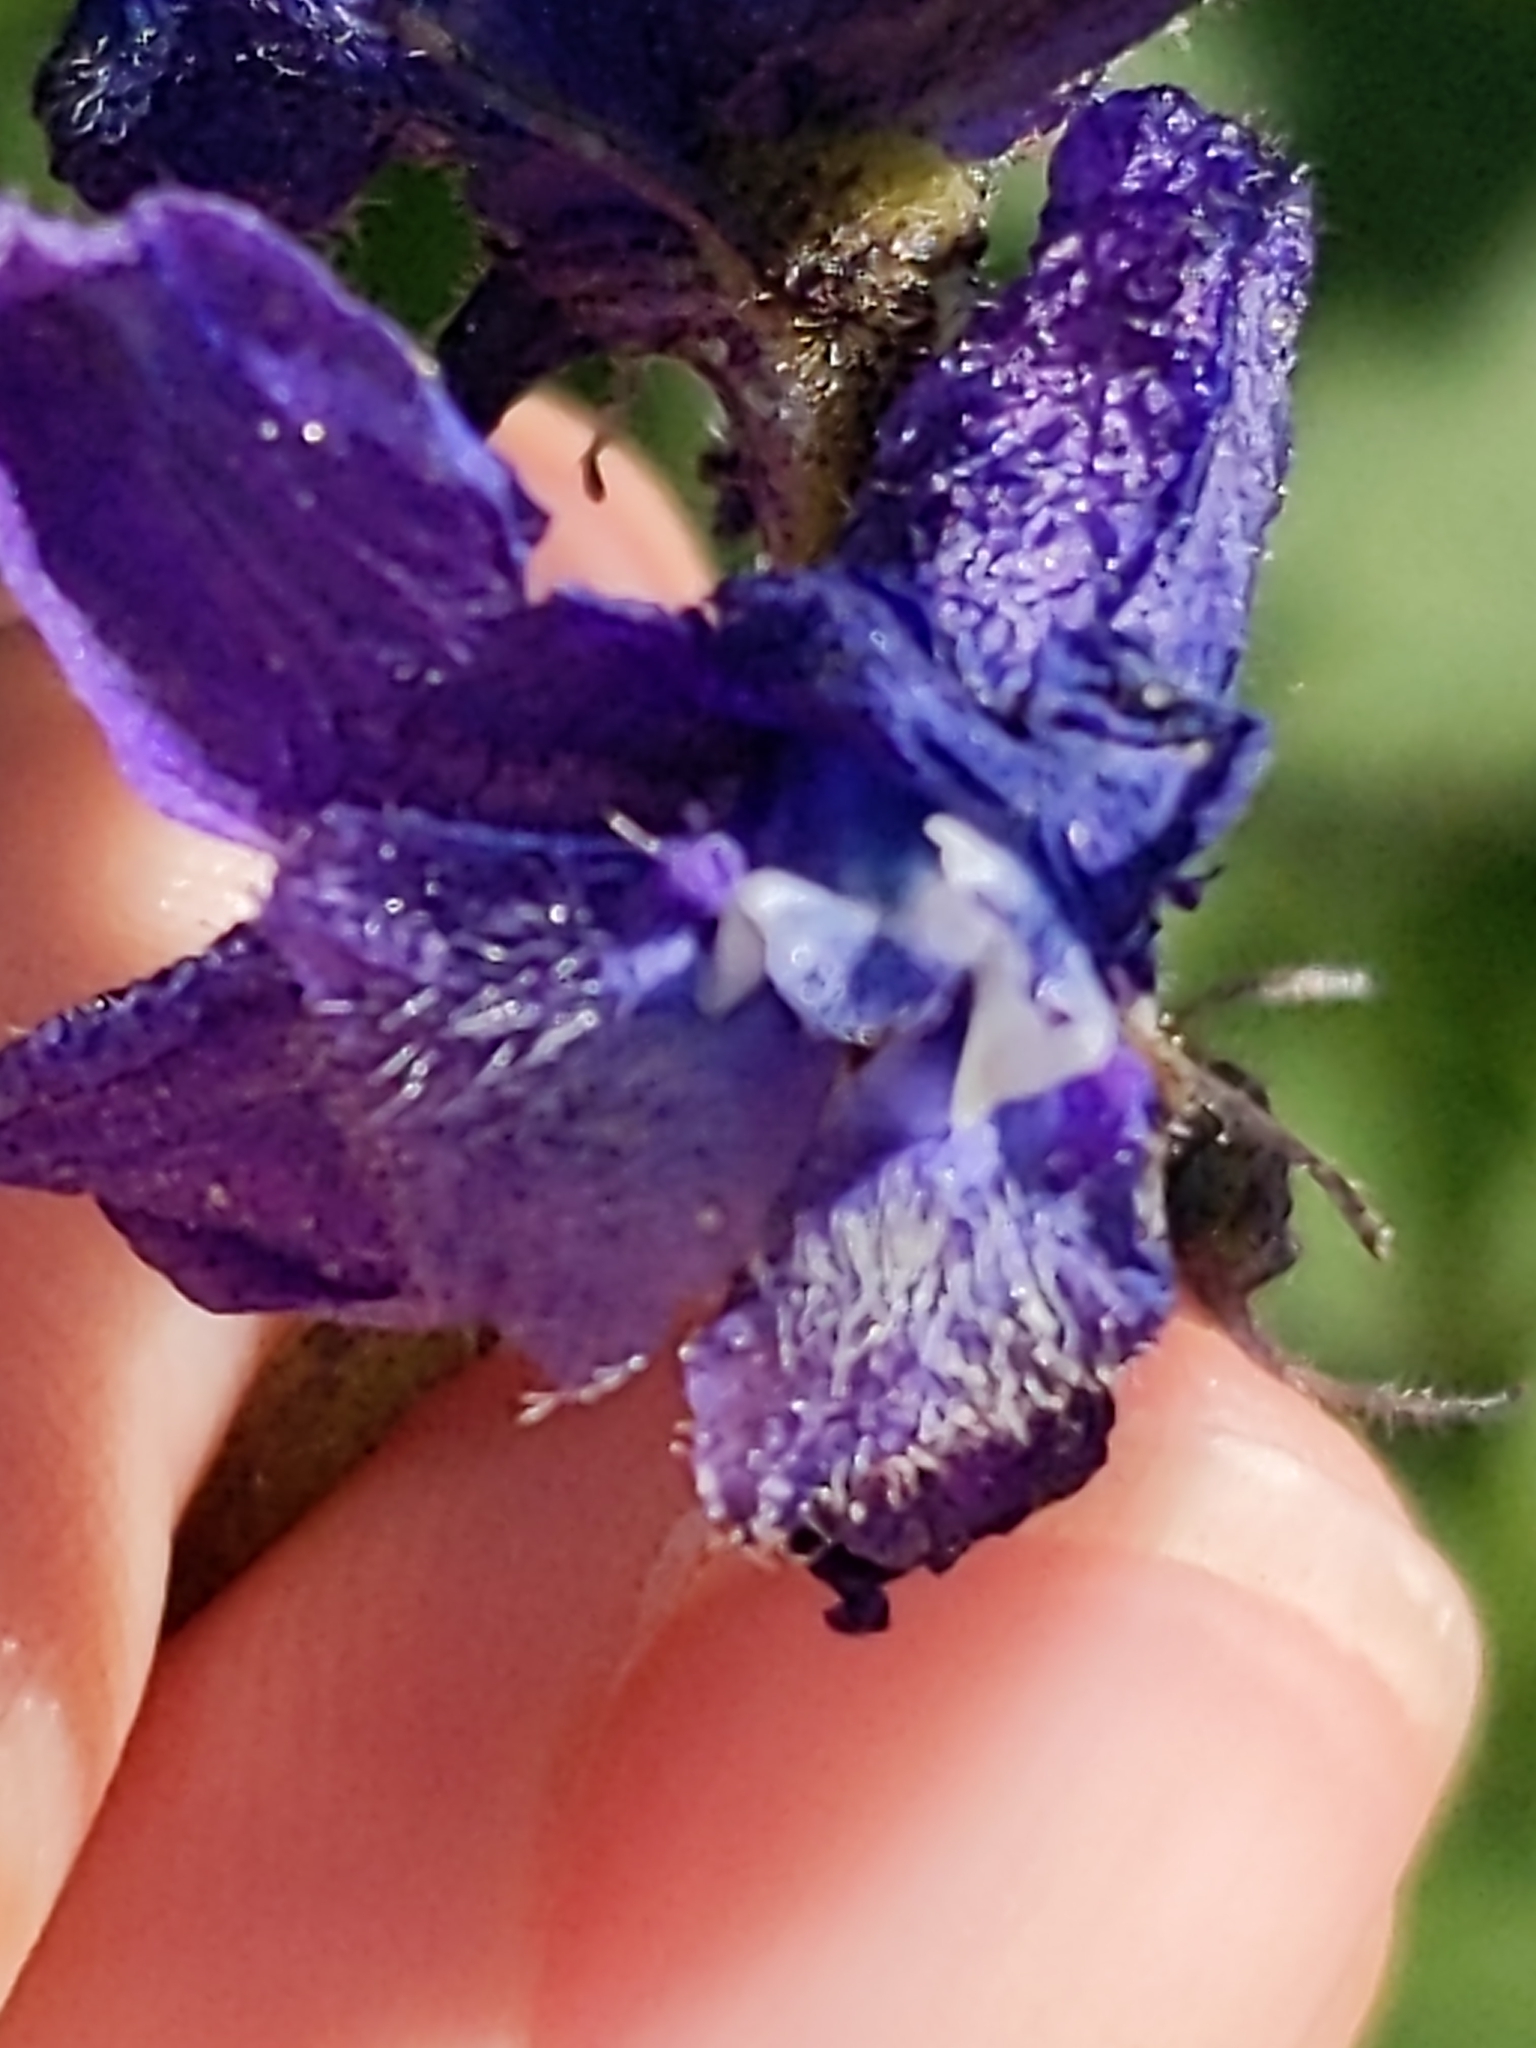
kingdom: Plantae
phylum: Tracheophyta
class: Magnoliopsida
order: Ranunculales
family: Ranunculaceae
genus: Delphinium
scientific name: Delphinium barbeyi
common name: Subalpine larkspur
